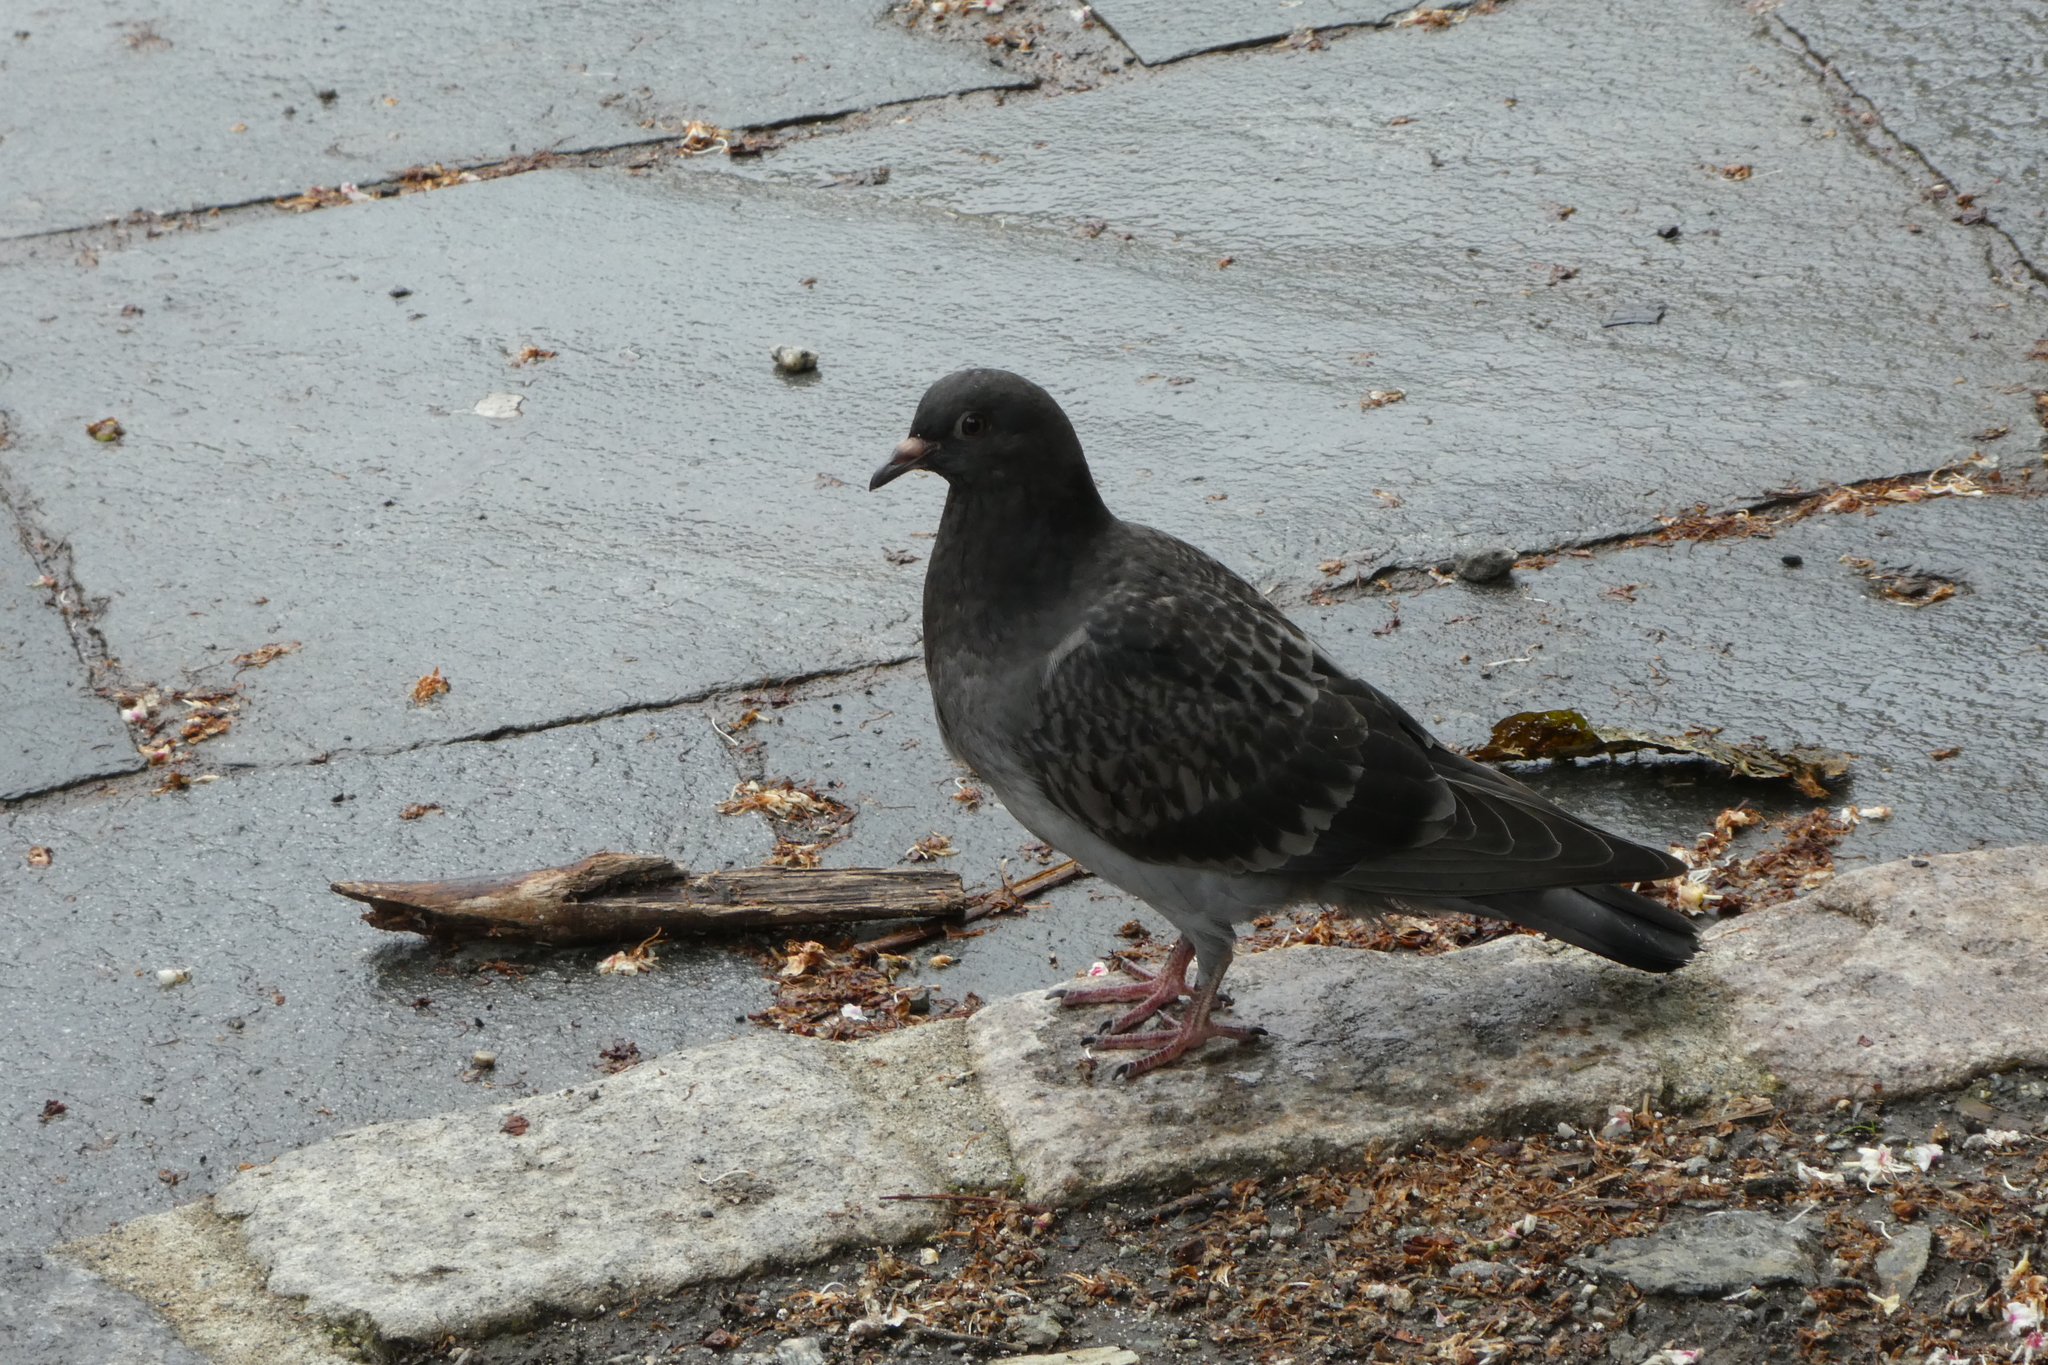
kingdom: Animalia
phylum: Chordata
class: Aves
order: Columbiformes
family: Columbidae
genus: Columba
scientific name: Columba livia
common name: Rock pigeon
